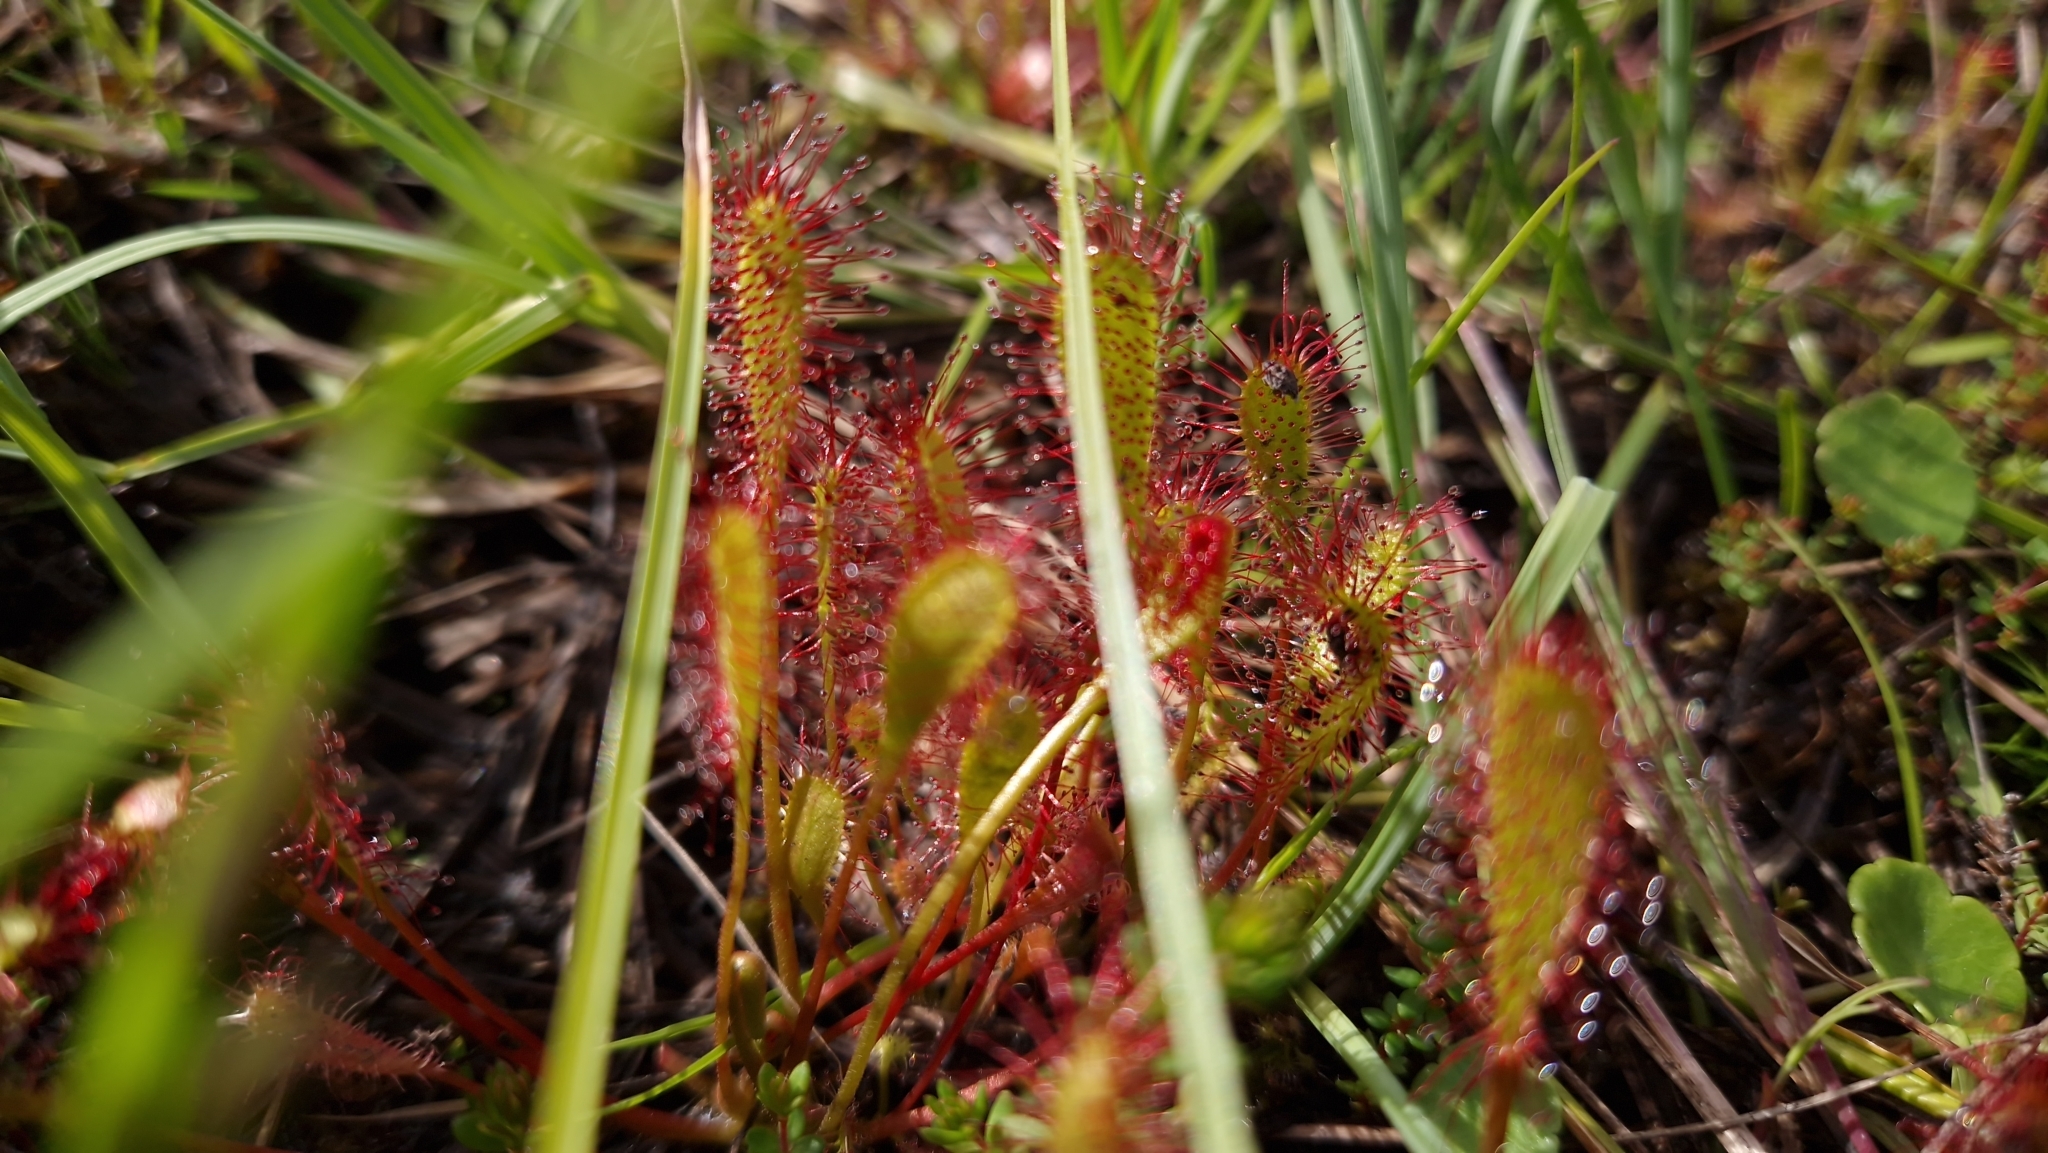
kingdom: Plantae
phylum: Tracheophyta
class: Magnoliopsida
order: Caryophyllales
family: Droseraceae
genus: Drosera
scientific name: Drosera anglica
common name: Great sundew
